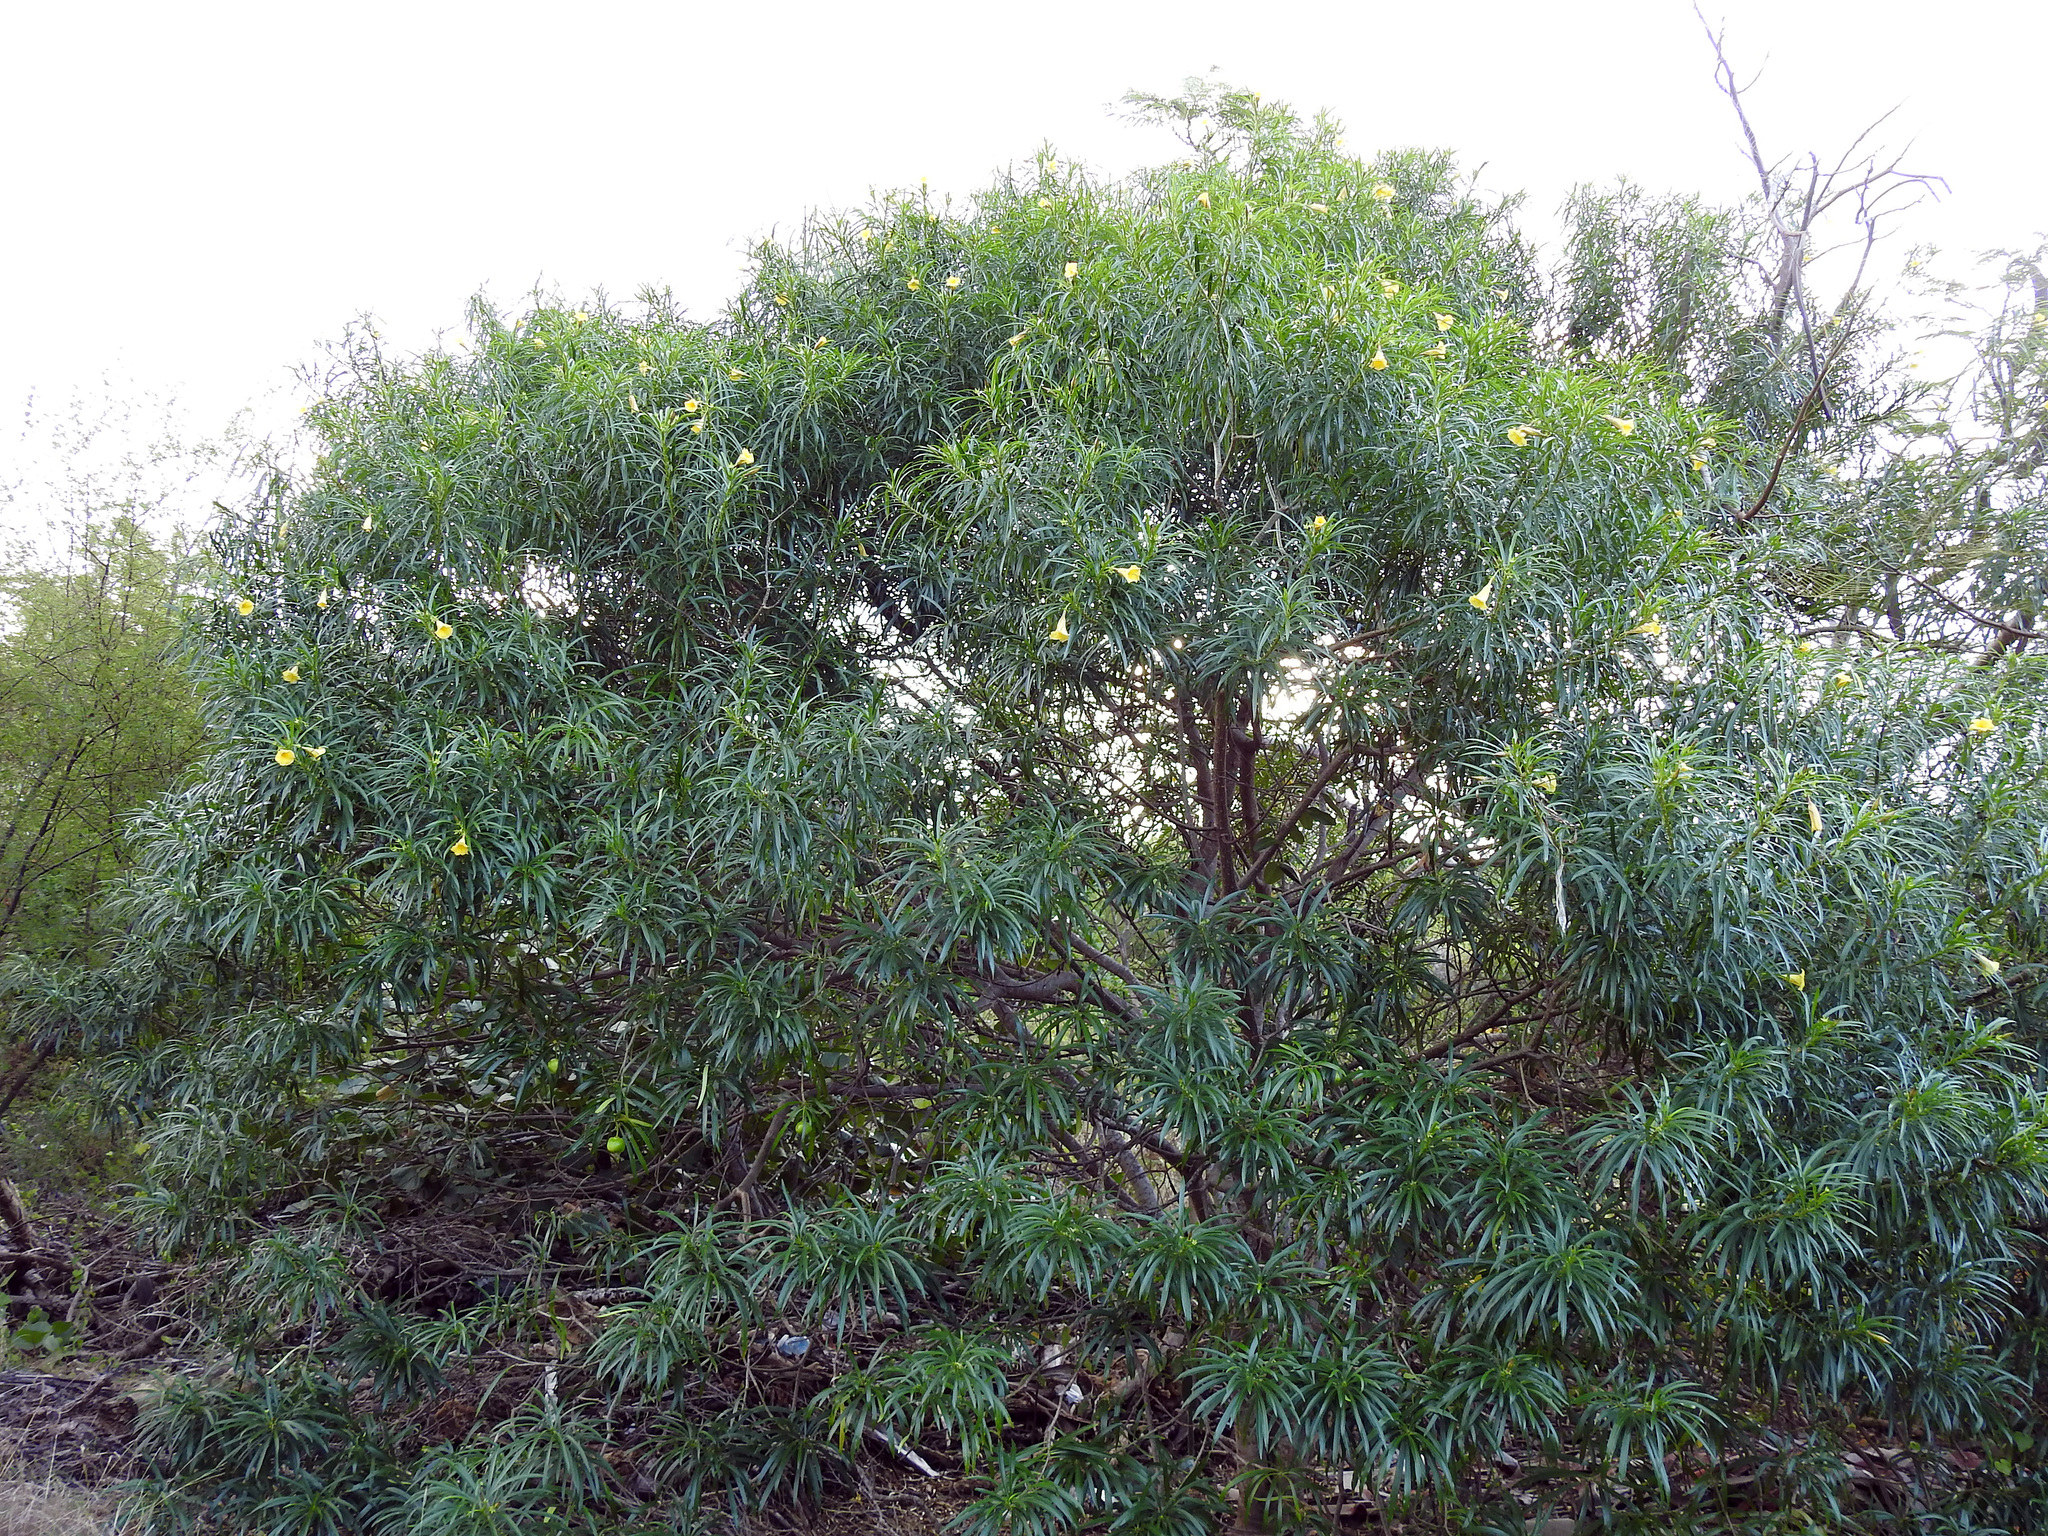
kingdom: Plantae
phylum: Tracheophyta
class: Magnoliopsida
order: Gentianales
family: Apocynaceae
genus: Cascabela
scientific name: Cascabela thevetia
